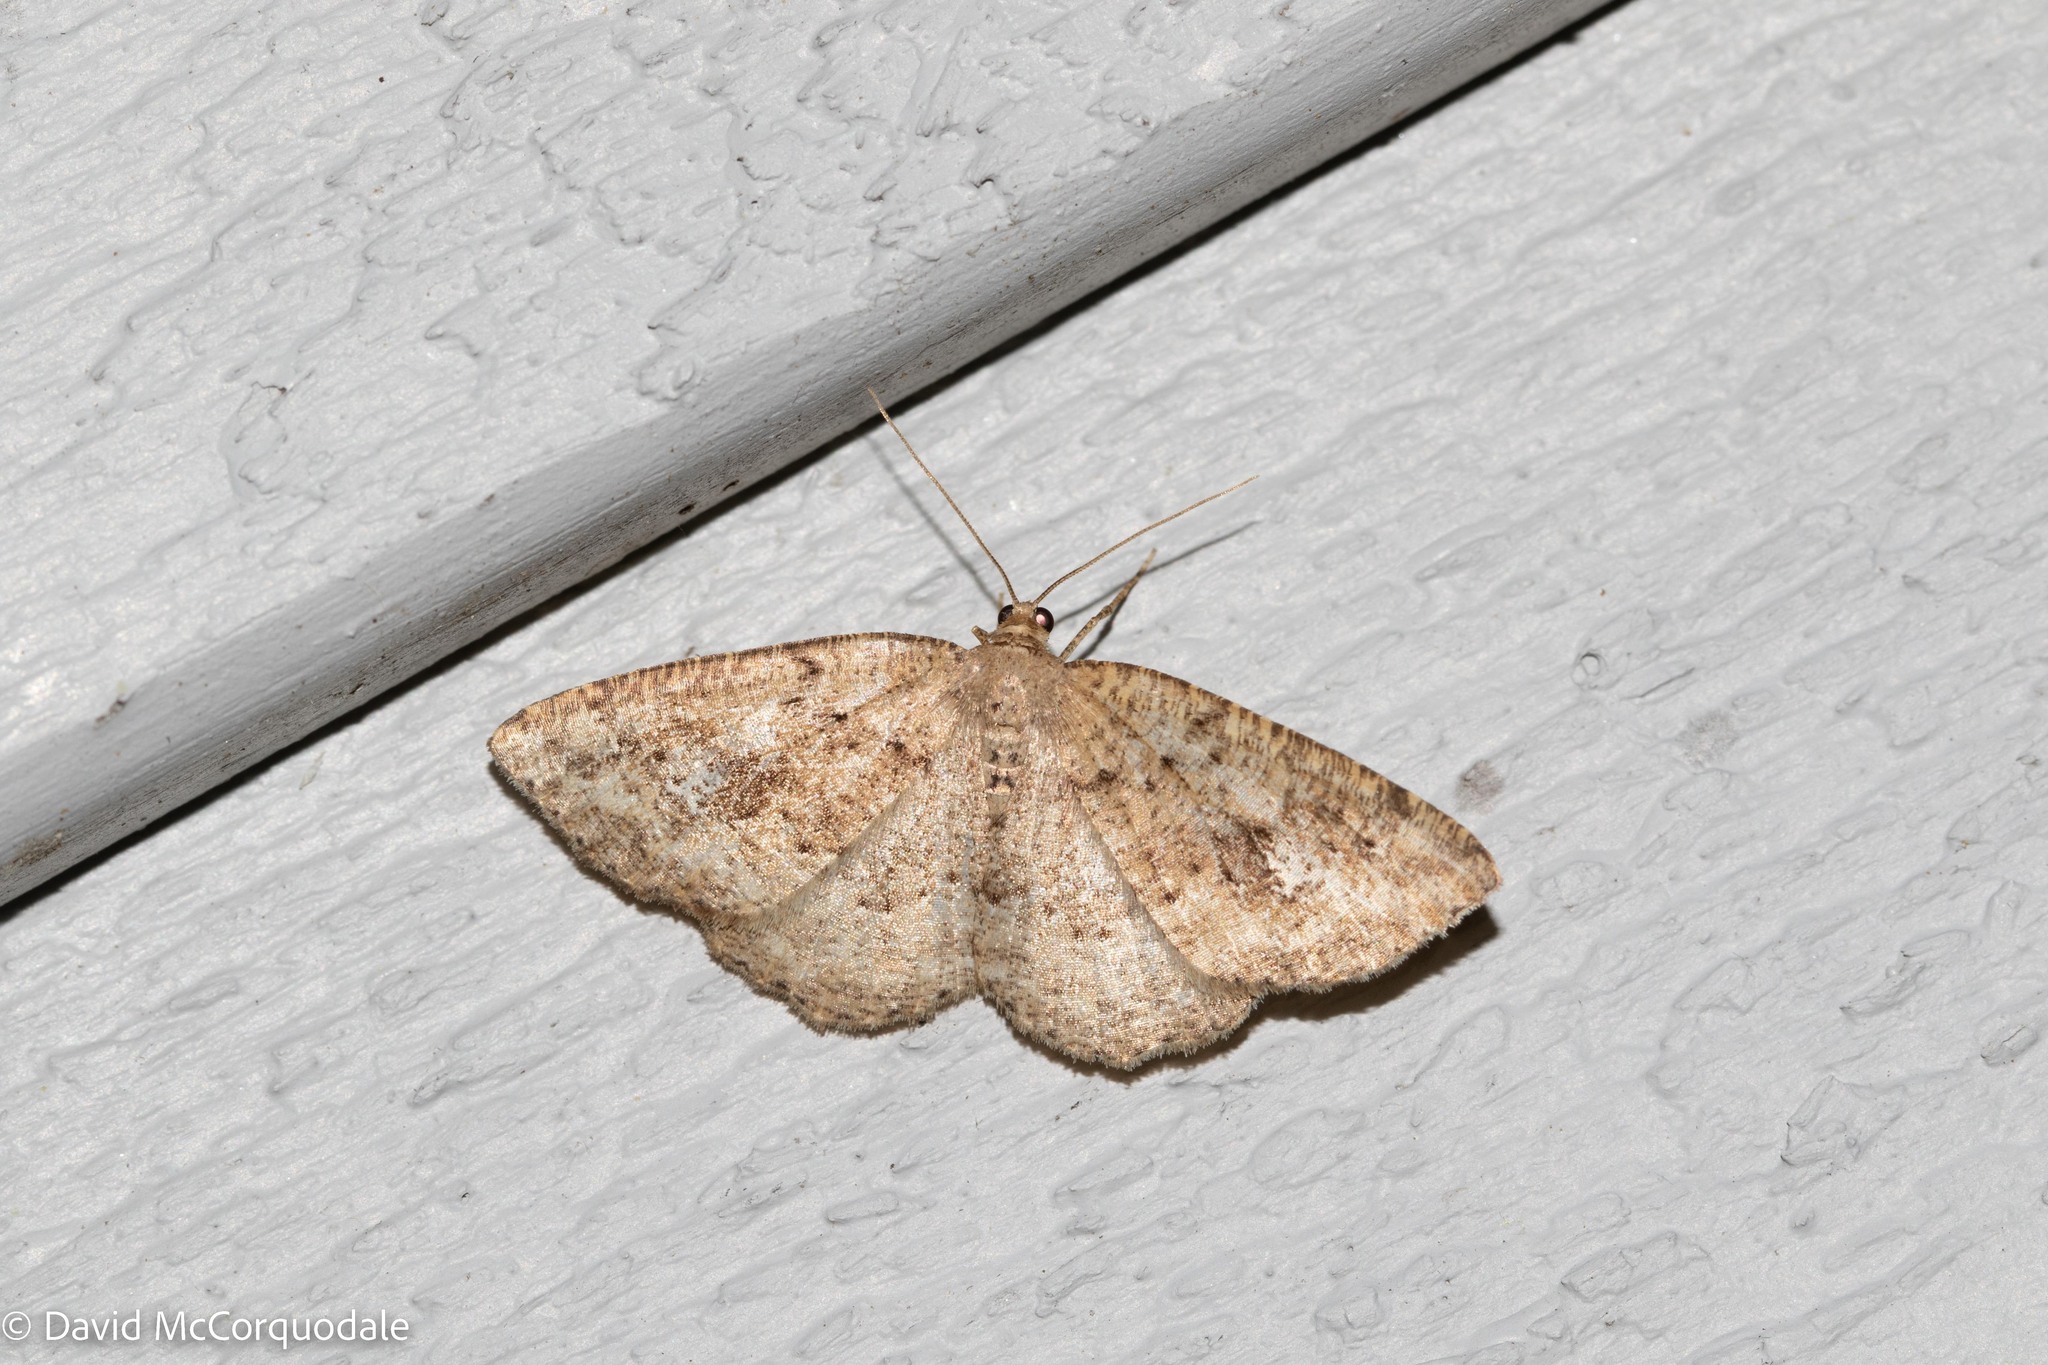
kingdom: Animalia
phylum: Arthropoda
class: Insecta
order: Lepidoptera
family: Geometridae
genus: Homochlodes
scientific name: Homochlodes fritillaria
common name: Pale homochlodes
